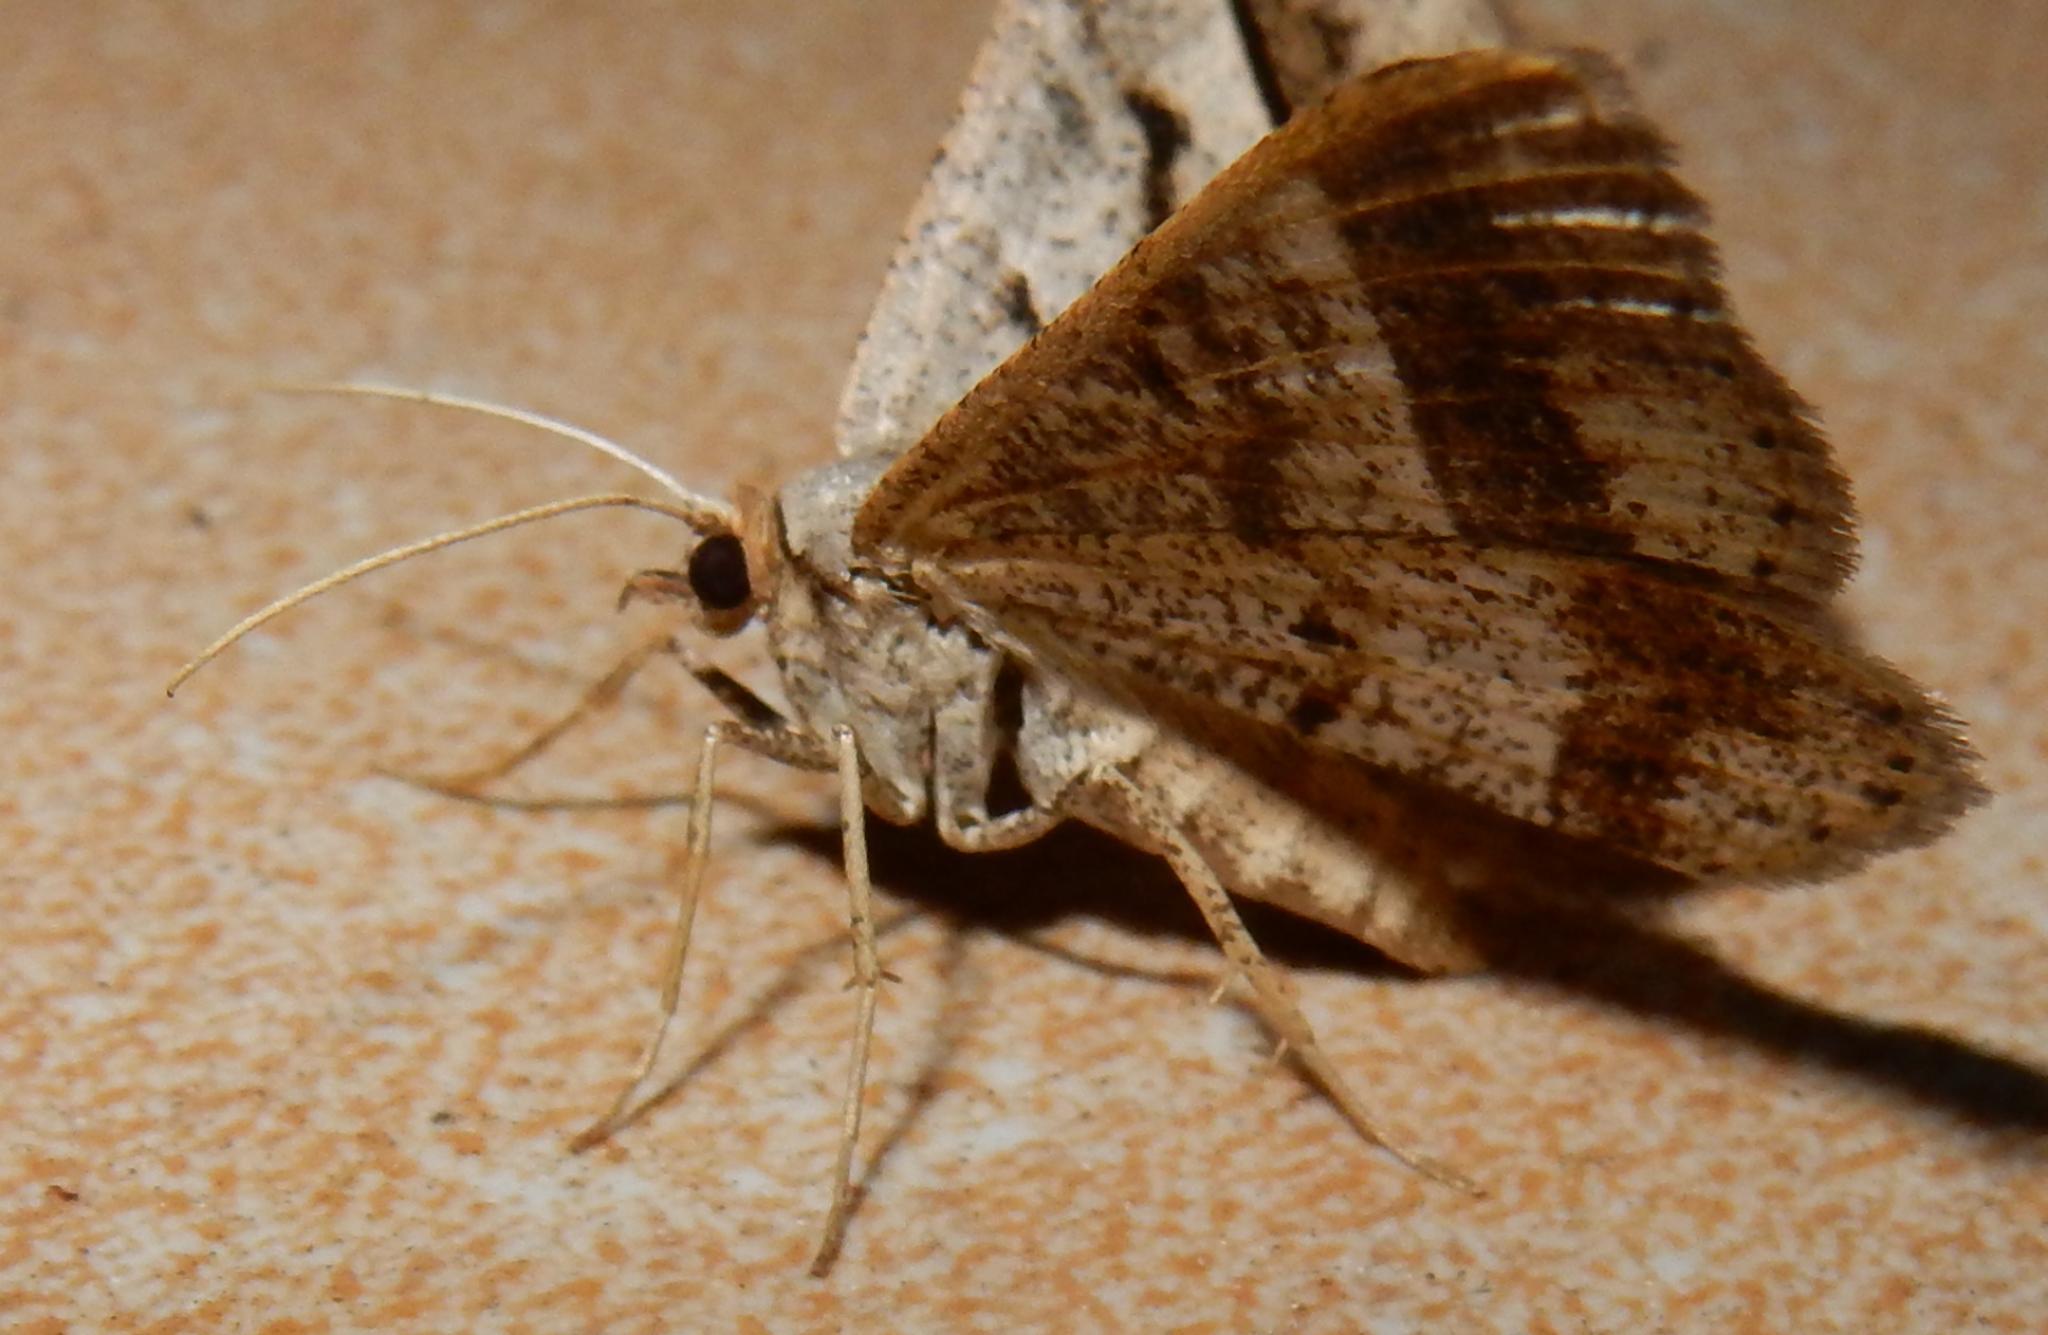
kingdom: Animalia
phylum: Arthropoda
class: Insecta
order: Lepidoptera
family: Geometridae
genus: Chiasmia
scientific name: Chiasmia subcurvaria
